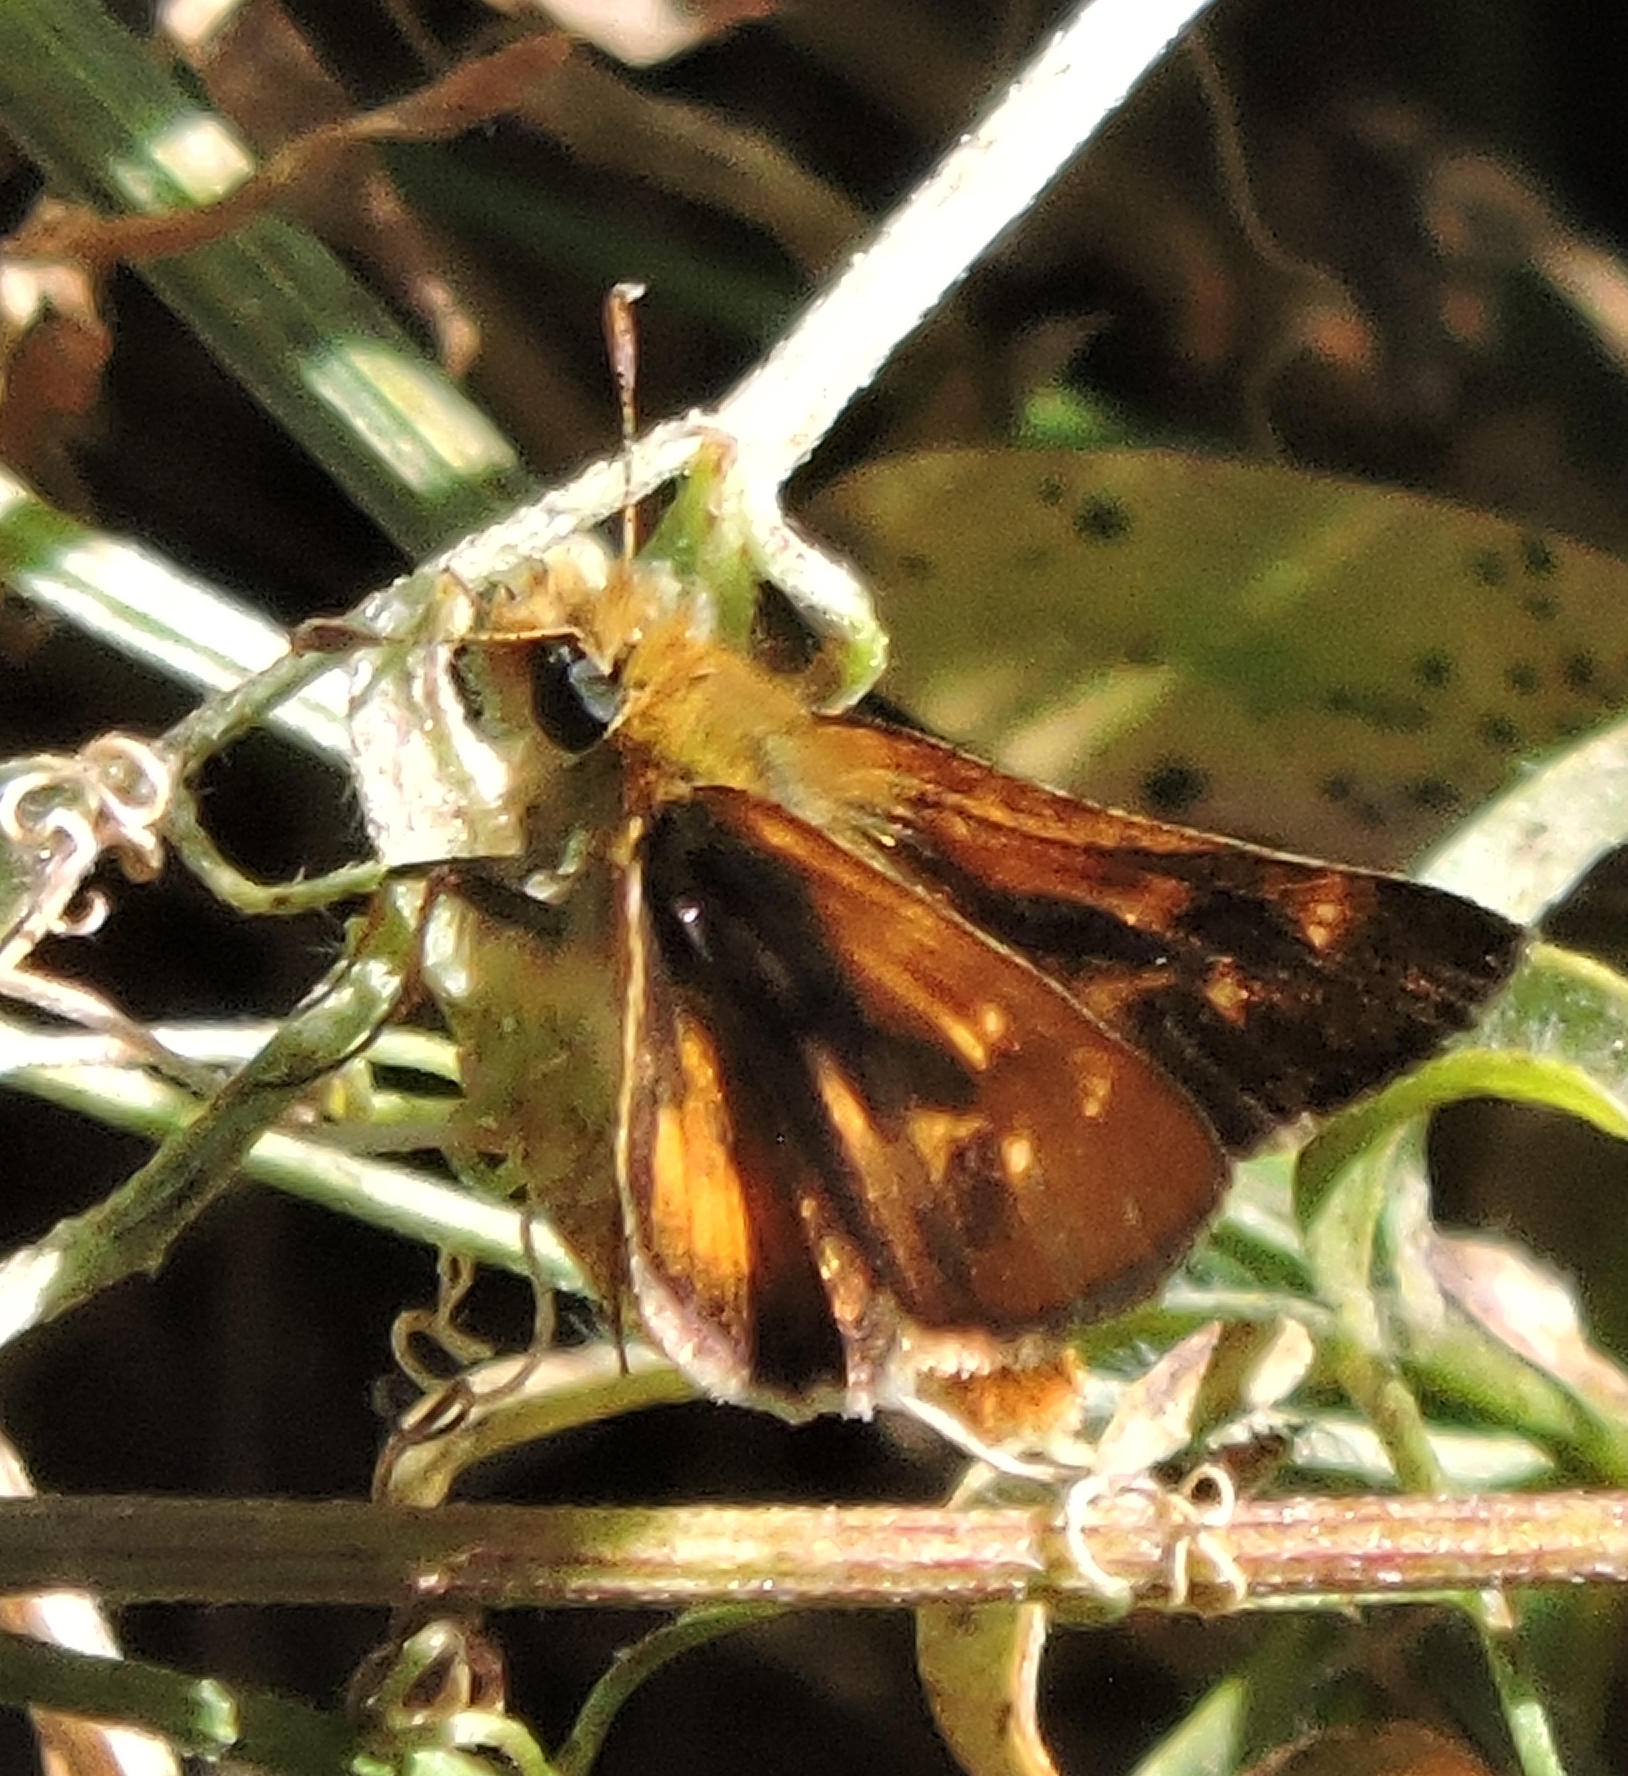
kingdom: Animalia
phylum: Arthropoda
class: Insecta
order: Lepidoptera
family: Hesperiidae
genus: Ochlodes
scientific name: Ochlodes agricola
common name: Rural skipper
